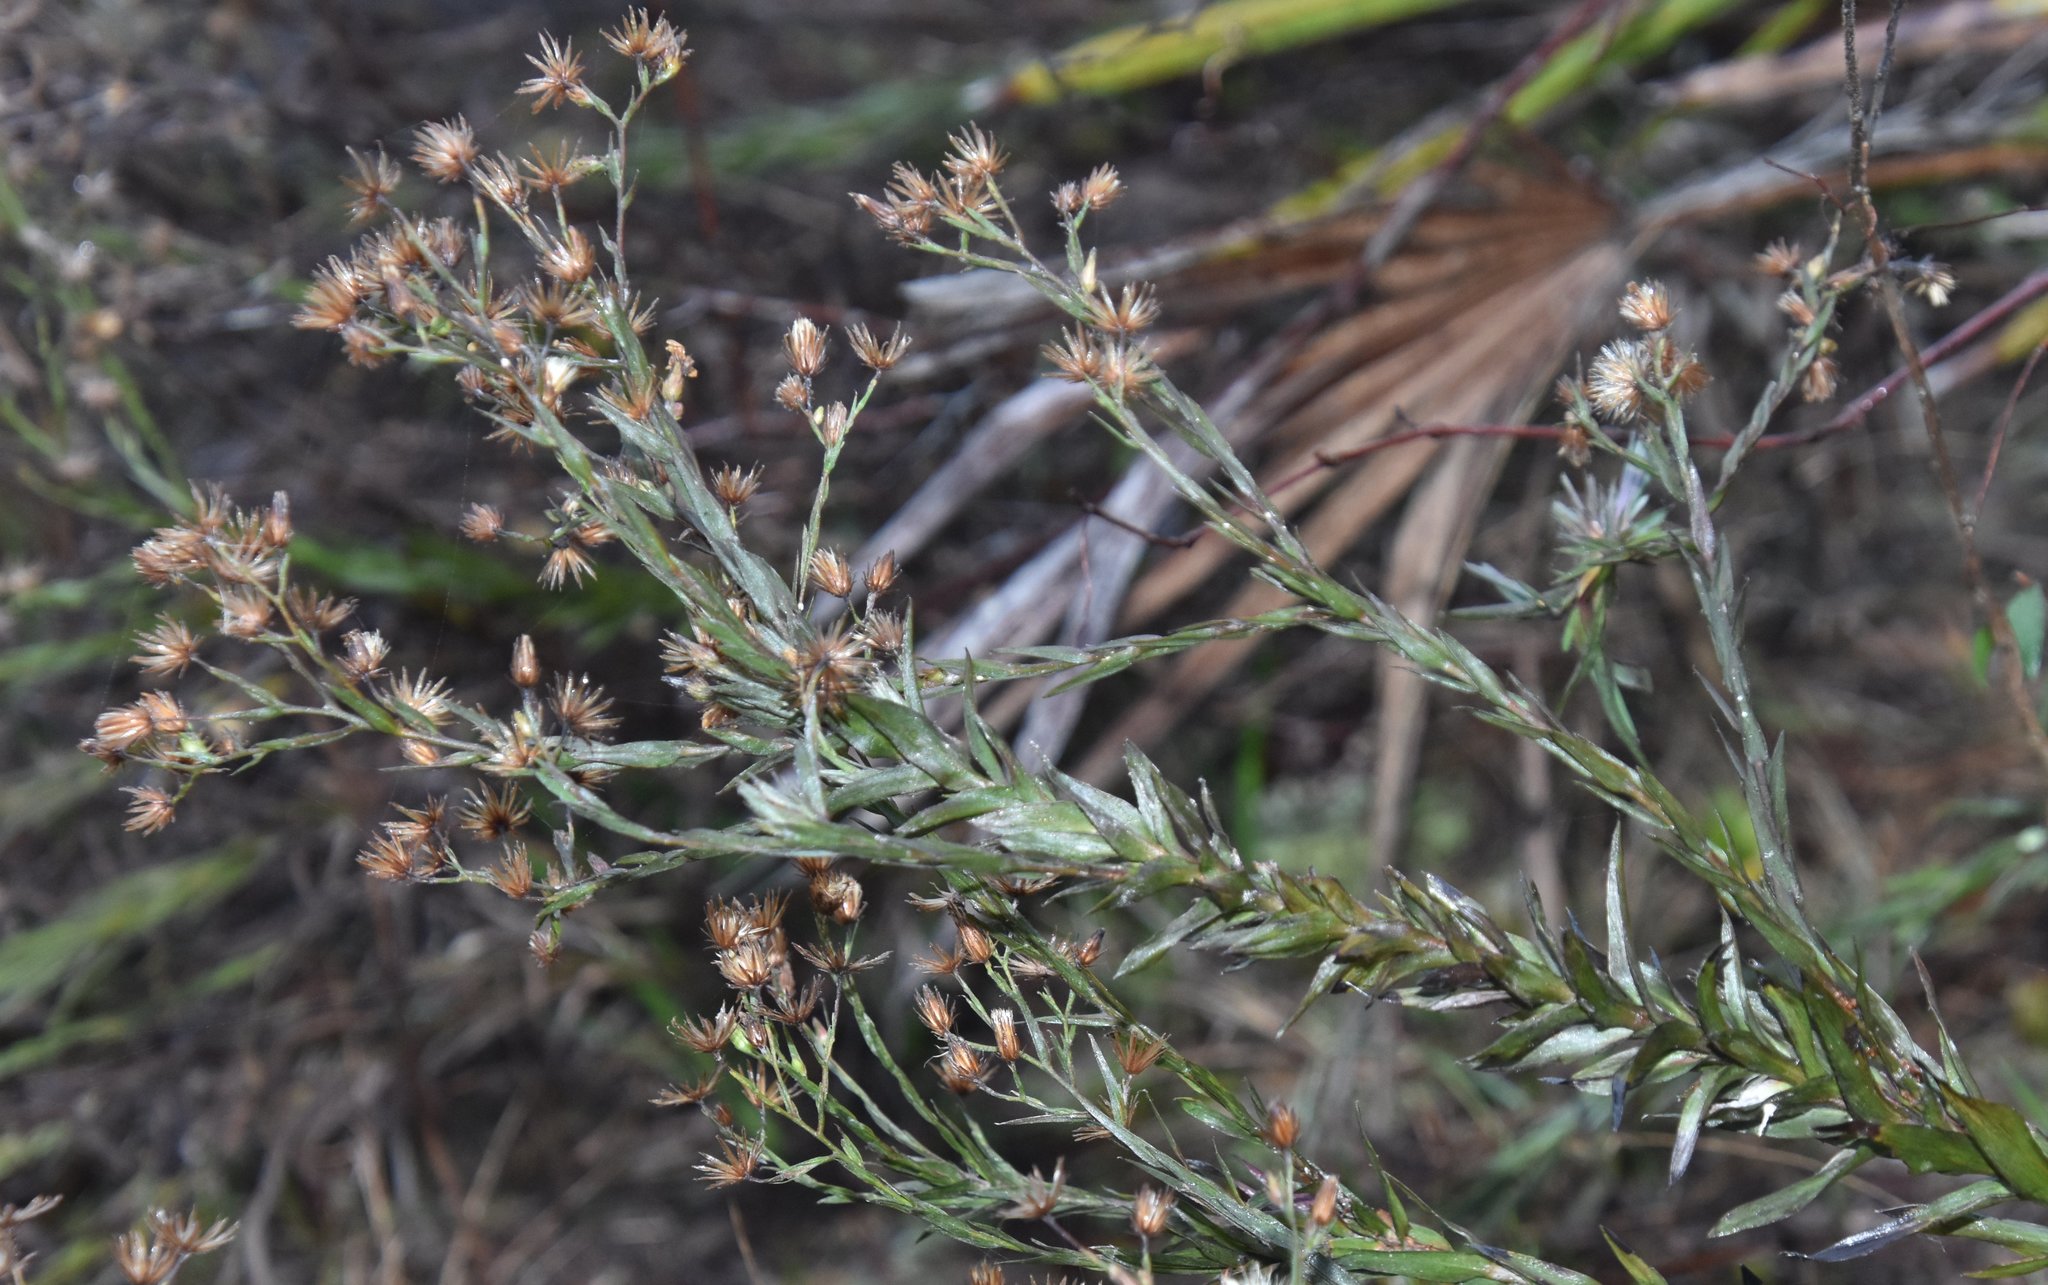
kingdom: Plantae
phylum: Tracheophyta
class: Magnoliopsida
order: Asterales
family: Asteraceae
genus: Pityopsis
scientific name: Pityopsis aequilifolia
